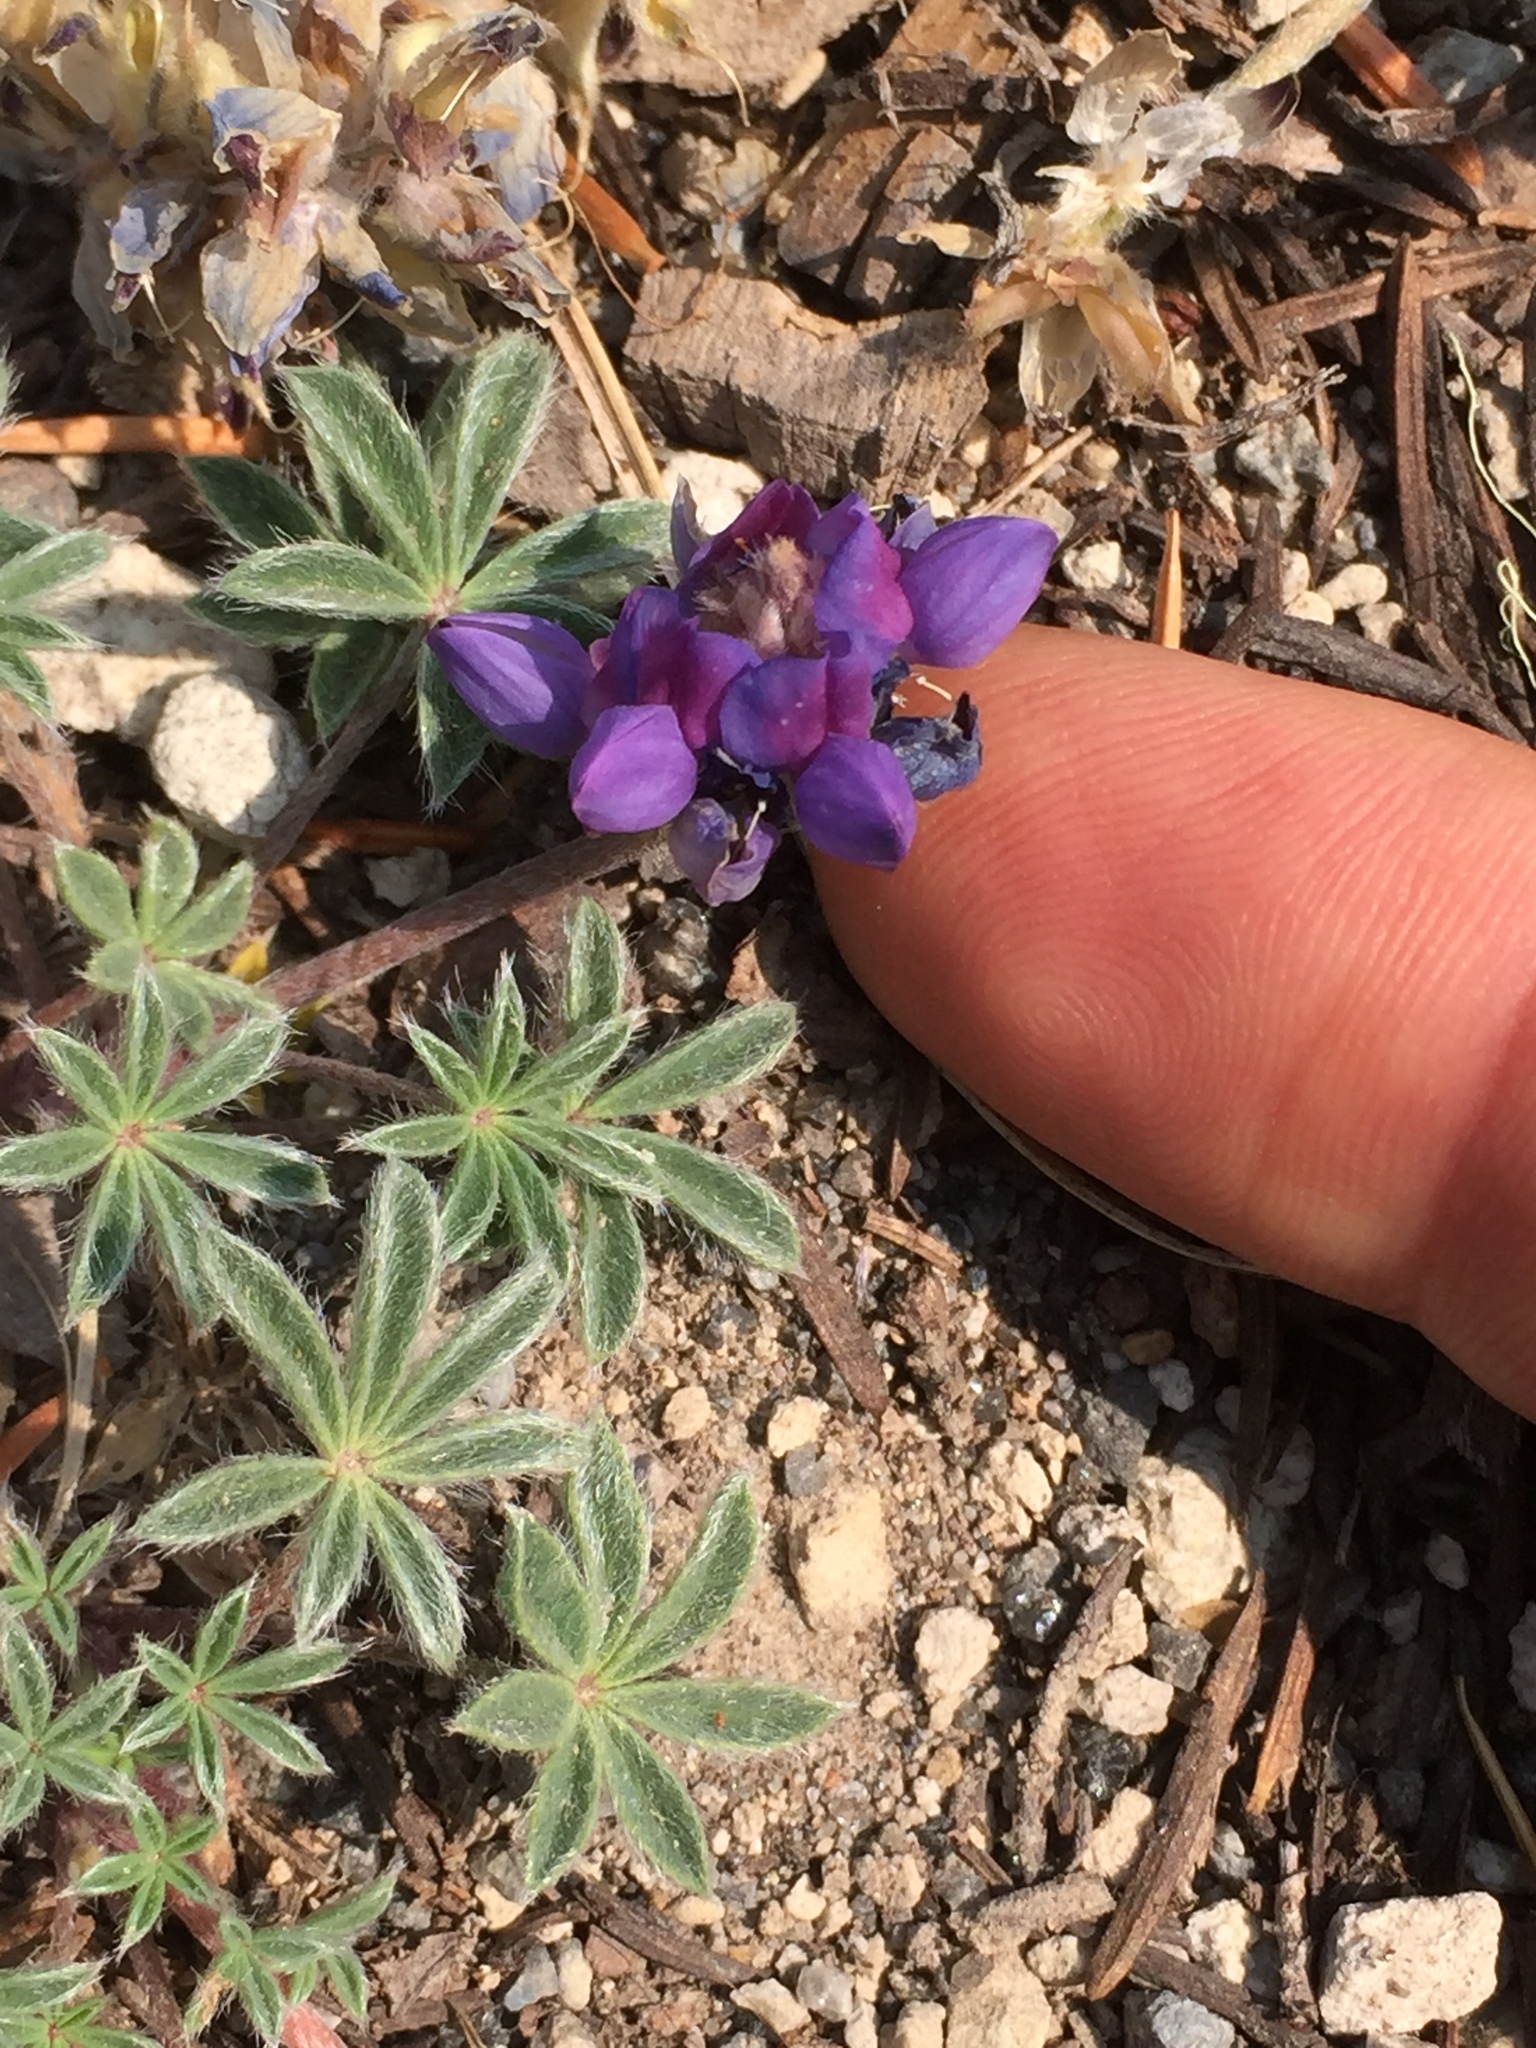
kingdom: Plantae
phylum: Tracheophyta
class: Magnoliopsida
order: Fabales
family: Fabaceae
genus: Lupinus
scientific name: Lupinus lepidus
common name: Prairie lupine
